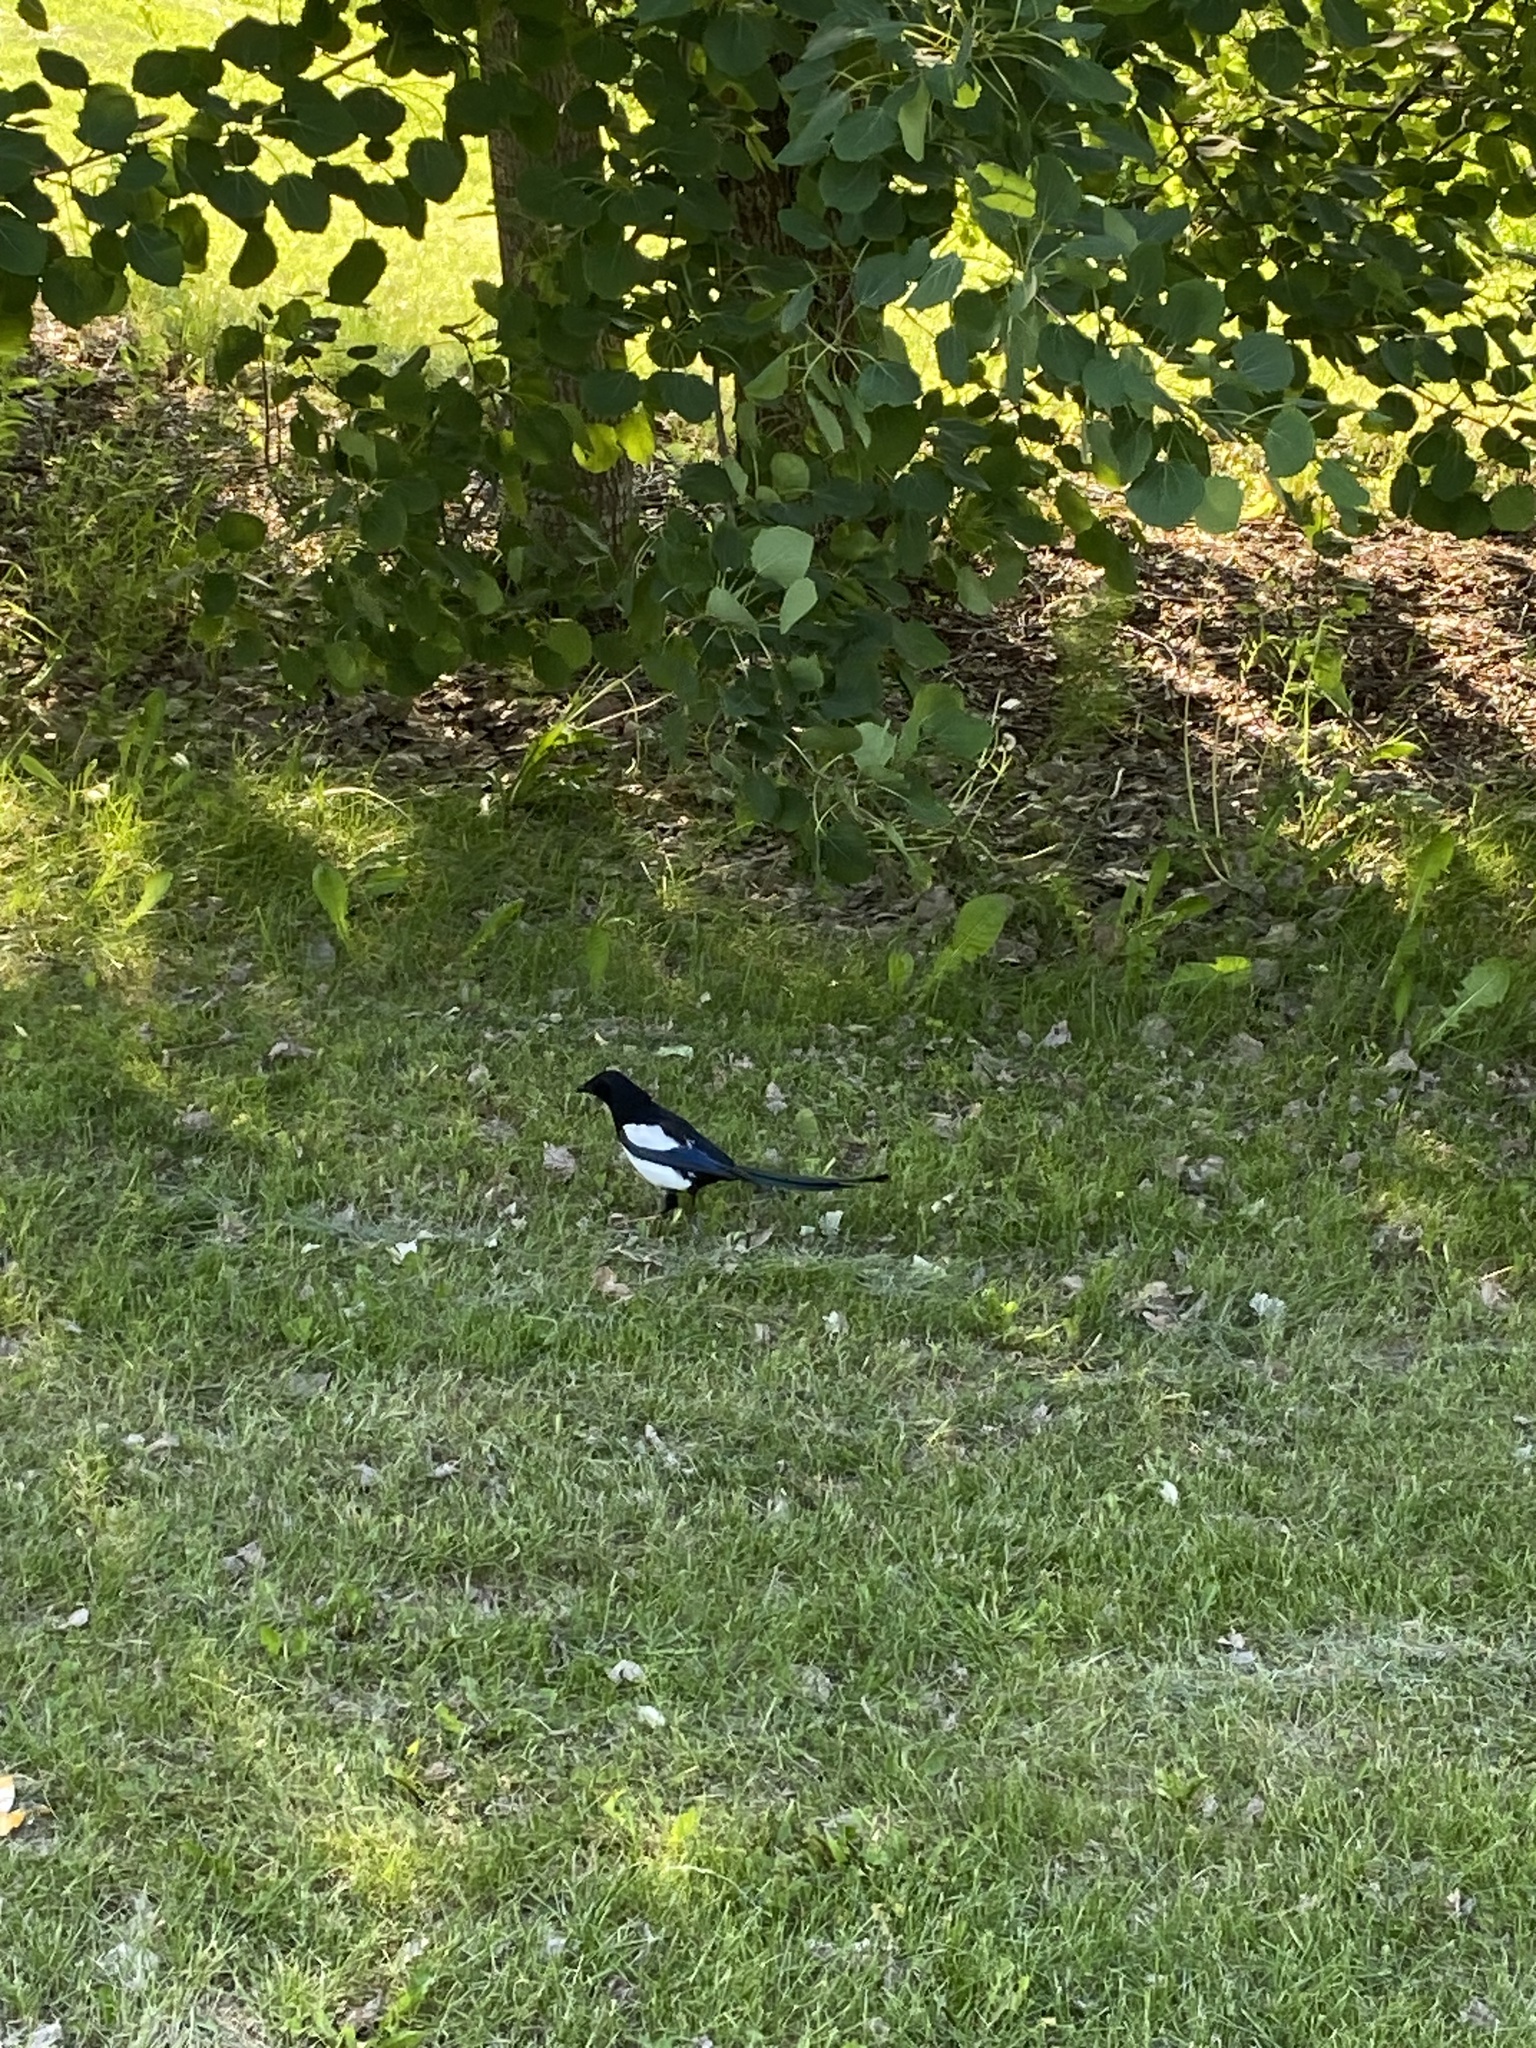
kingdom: Animalia
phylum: Chordata
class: Aves
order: Passeriformes
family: Corvidae
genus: Pica
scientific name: Pica pica
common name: Eurasian magpie
